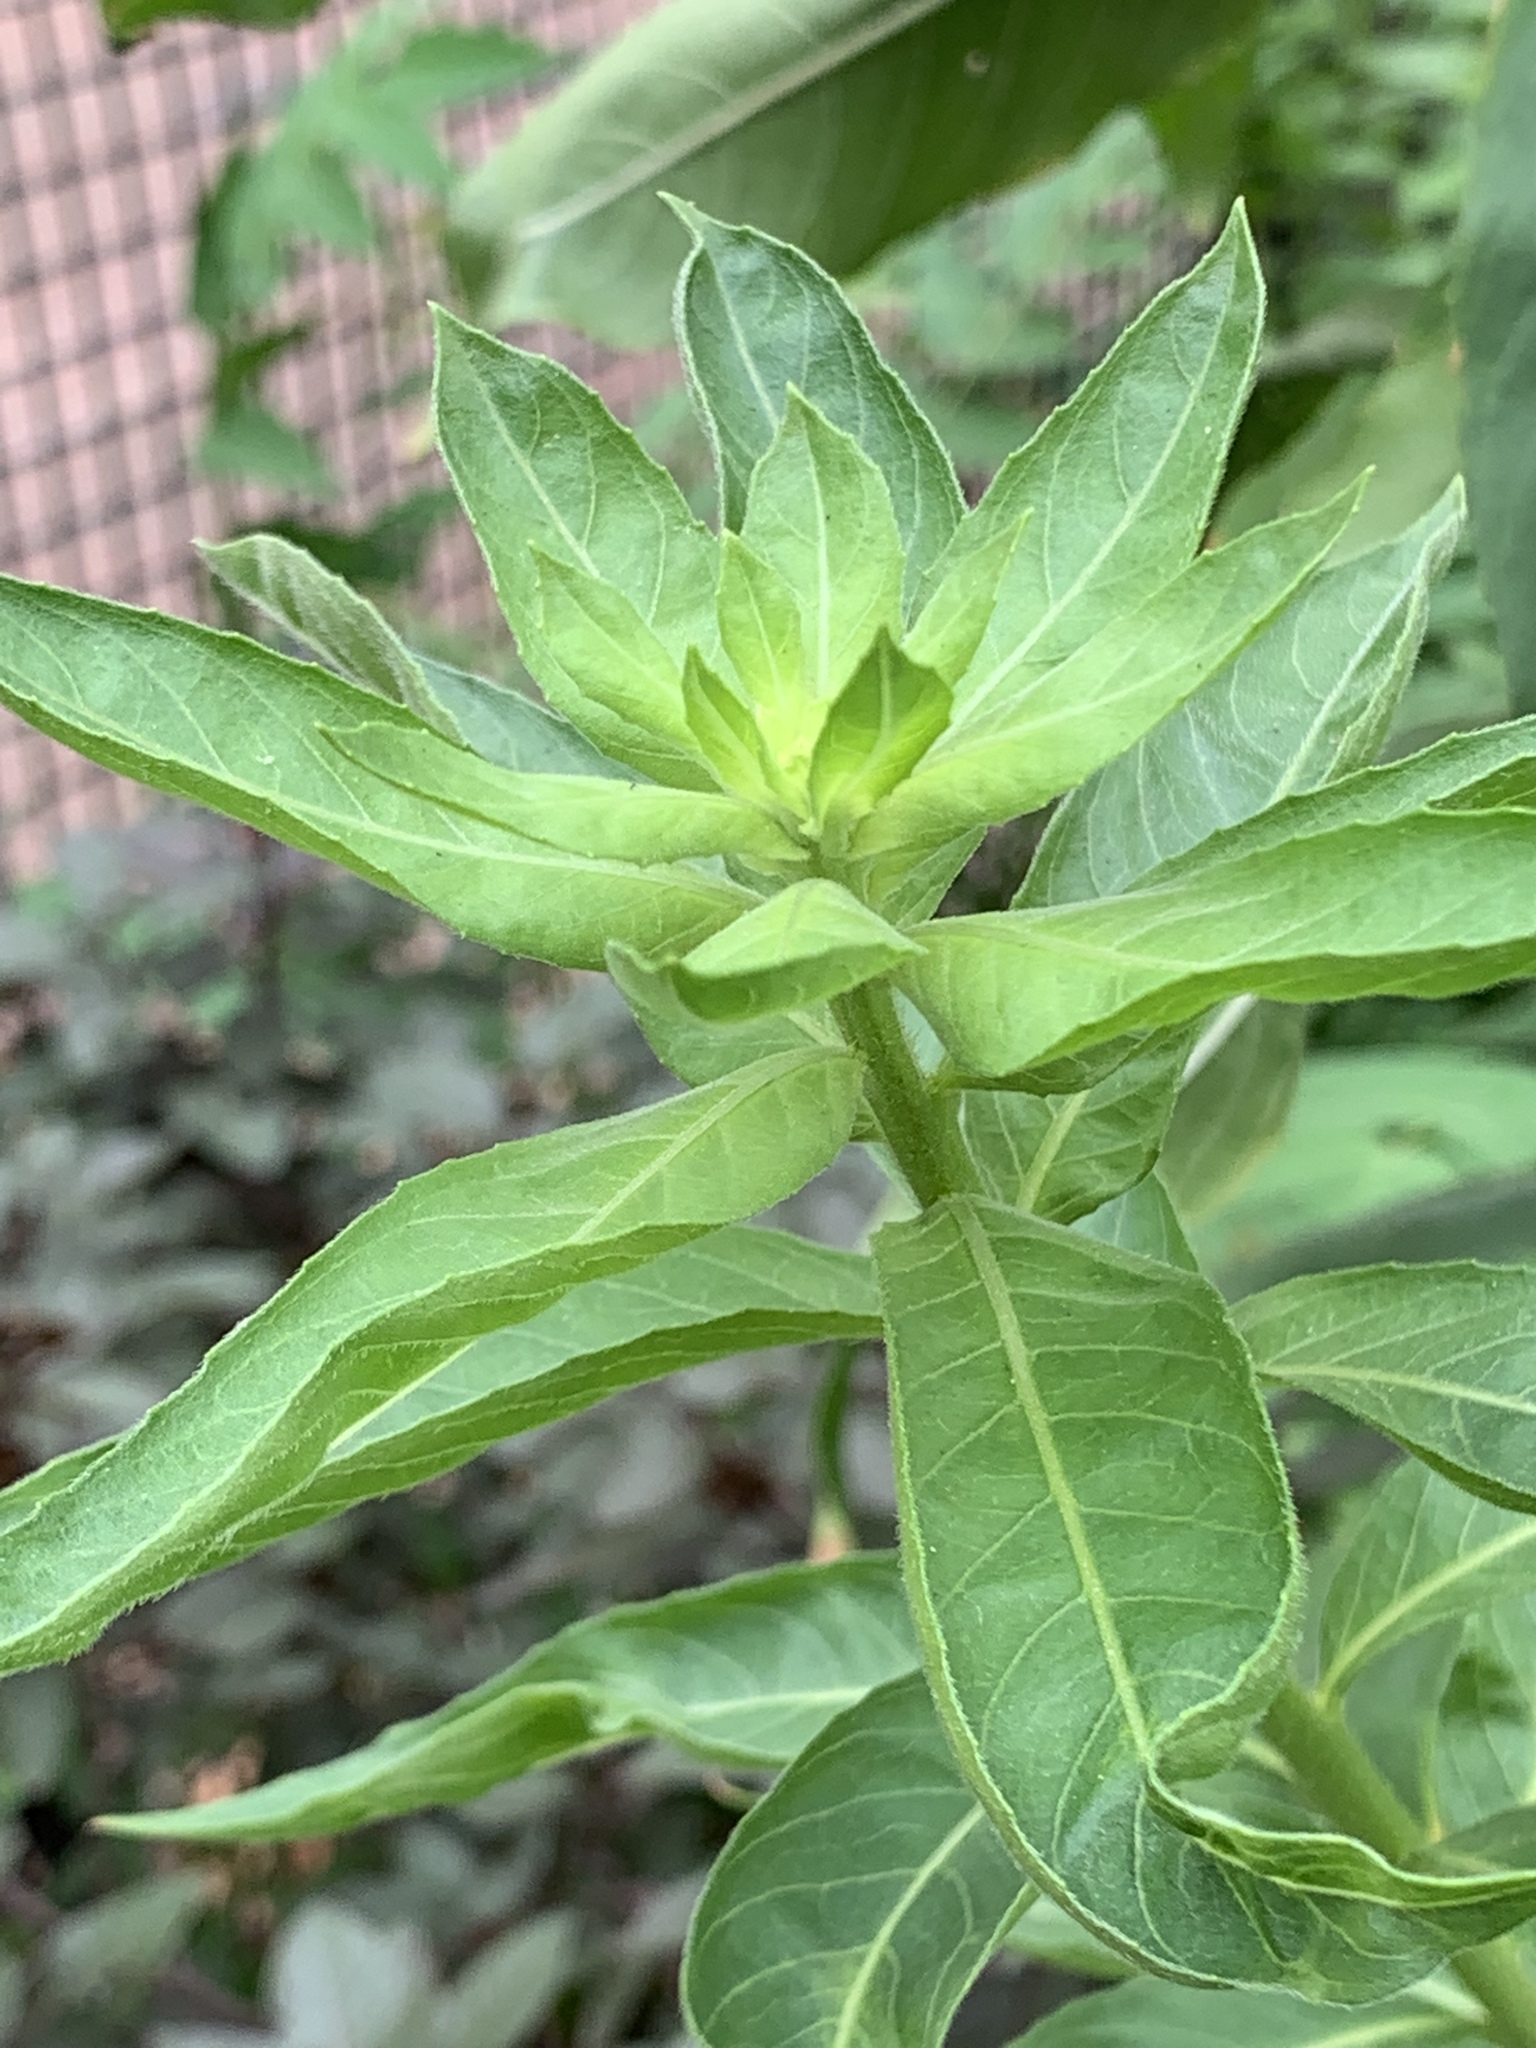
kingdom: Plantae
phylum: Tracheophyta
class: Magnoliopsida
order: Myrtales
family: Onagraceae
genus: Oenothera
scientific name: Oenothera biennis
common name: Common evening-primrose
